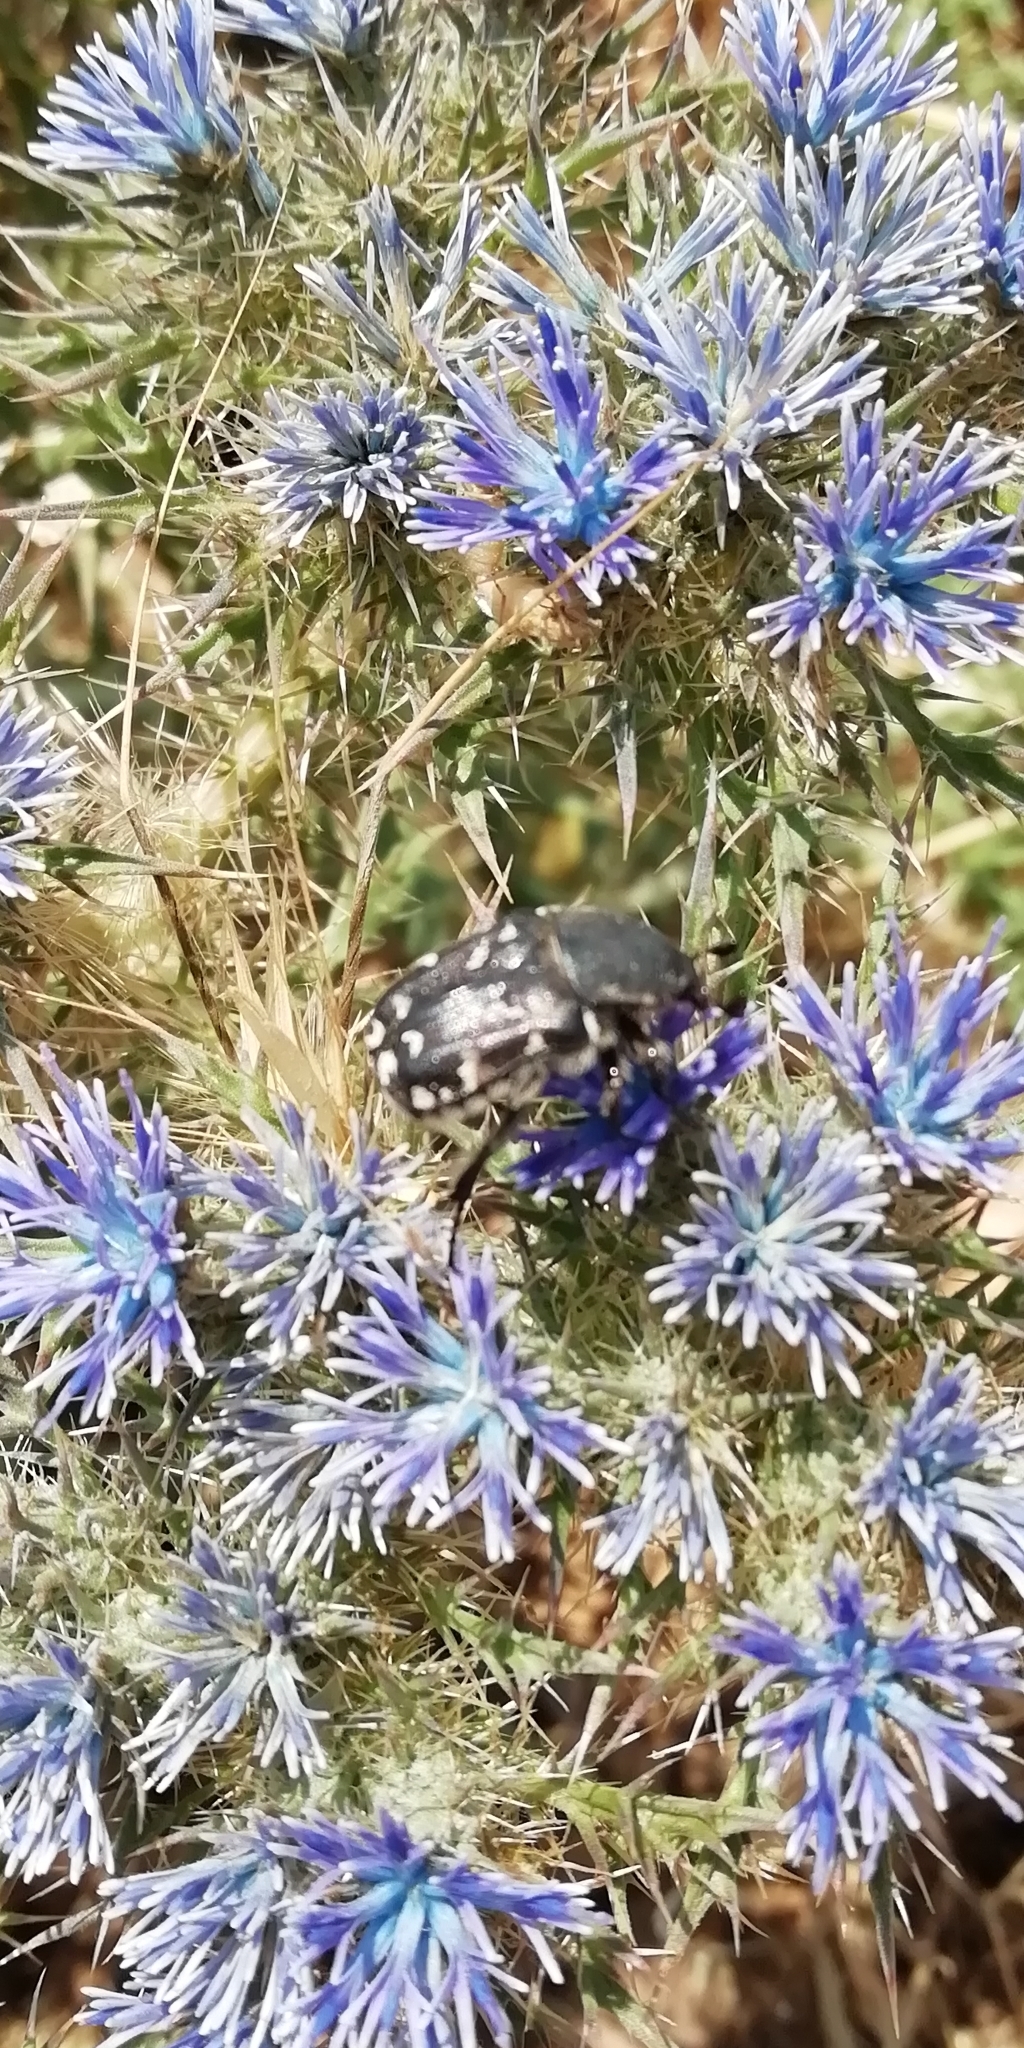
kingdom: Animalia
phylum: Arthropoda
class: Insecta
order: Coleoptera
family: Scarabaeidae
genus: Heterocnemis
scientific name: Heterocnemis graeca
